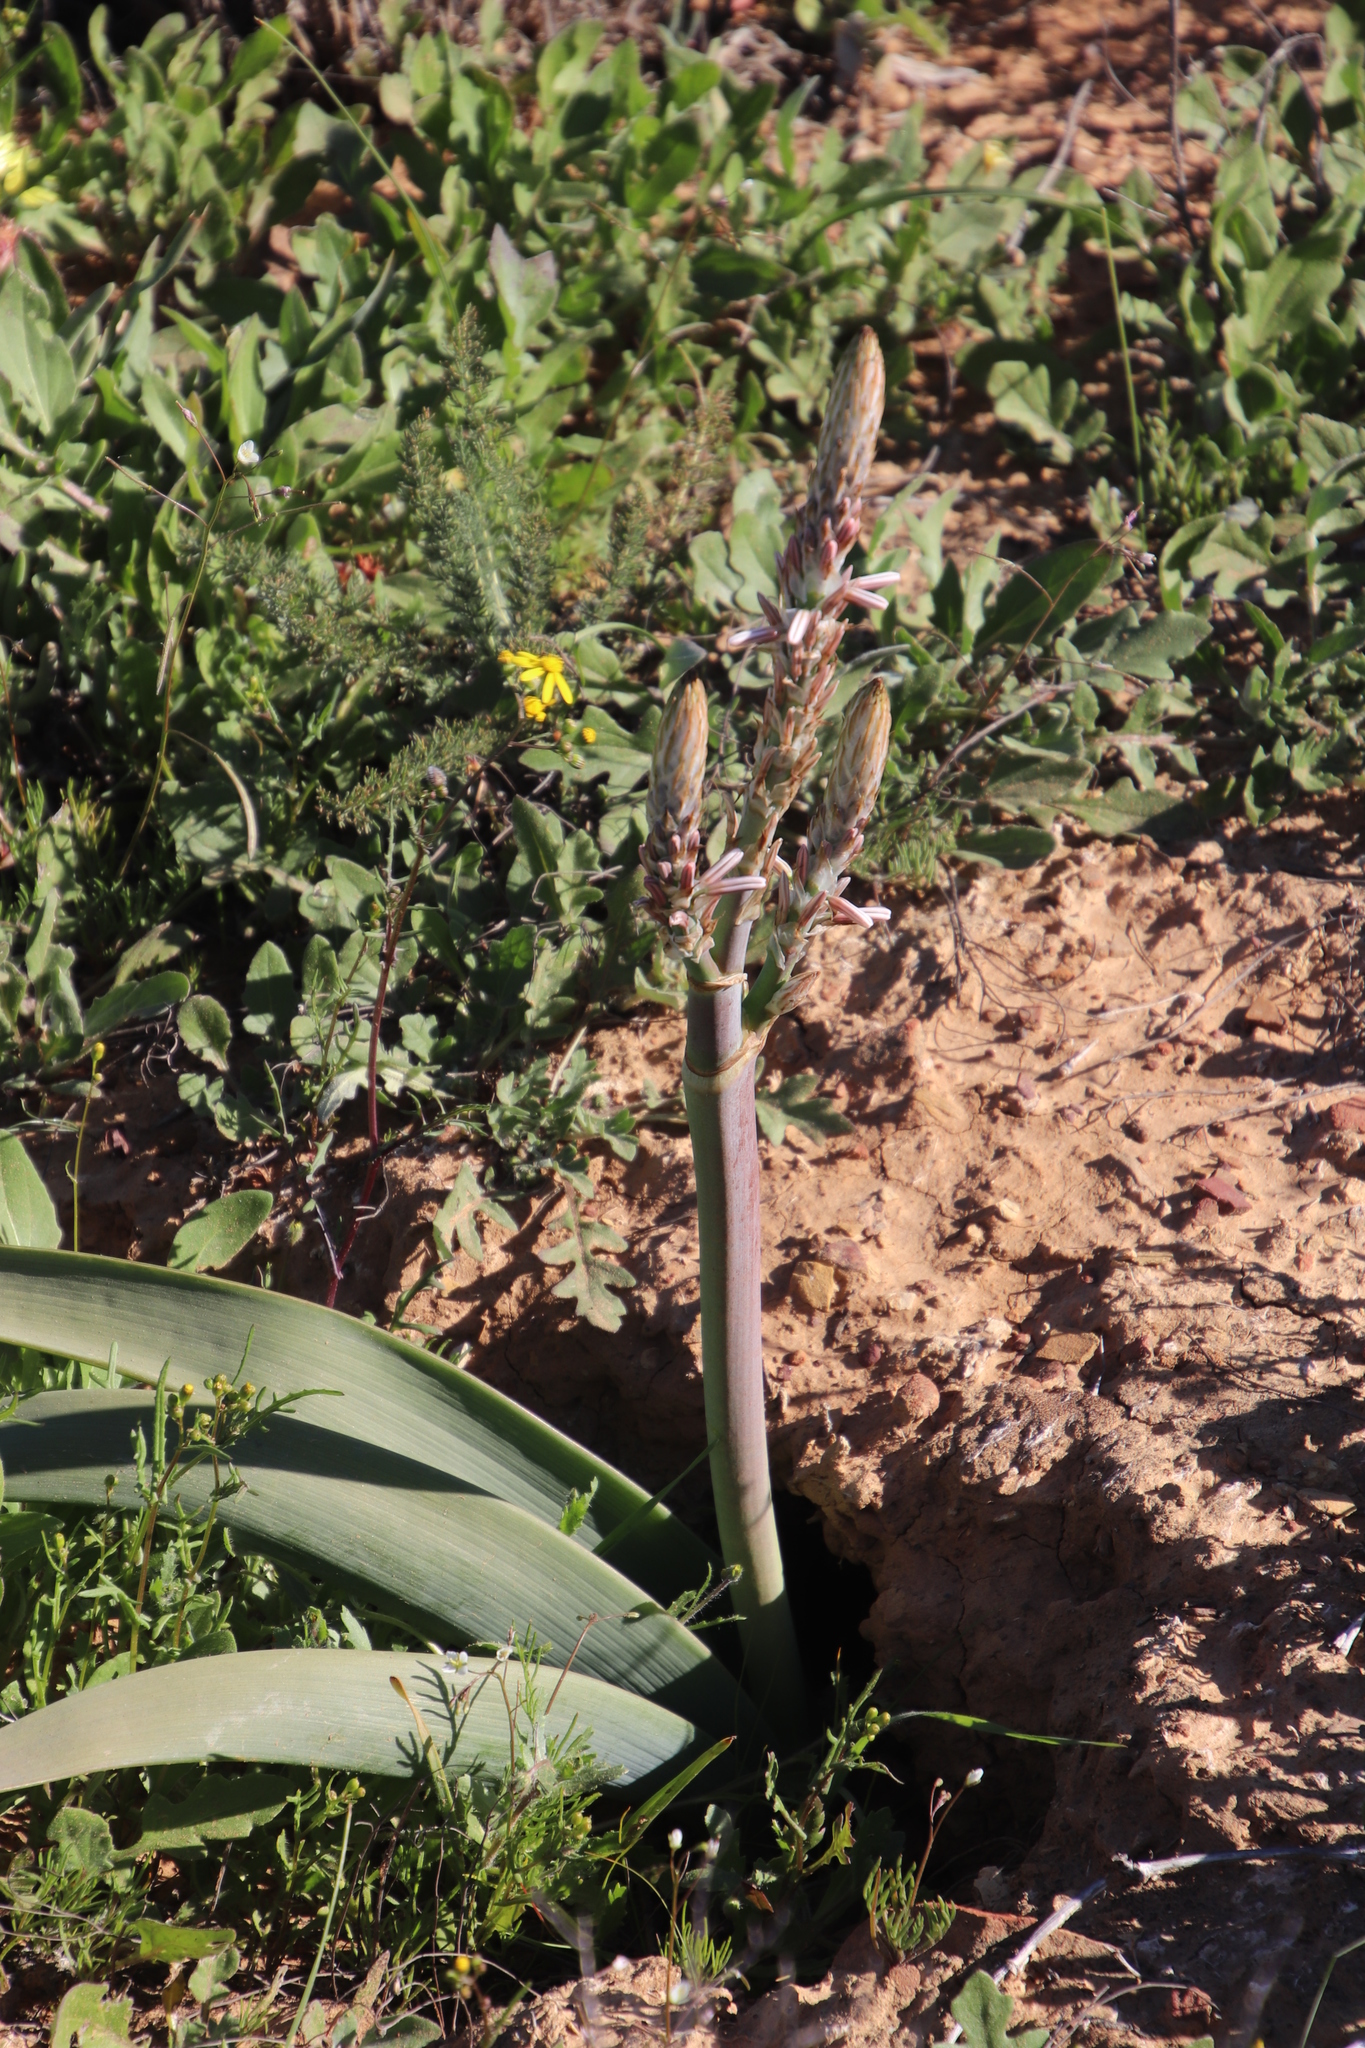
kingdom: Plantae
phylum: Tracheophyta
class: Liliopsida
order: Asparagales
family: Asphodelaceae
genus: Trachyandra
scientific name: Trachyandra falcata
